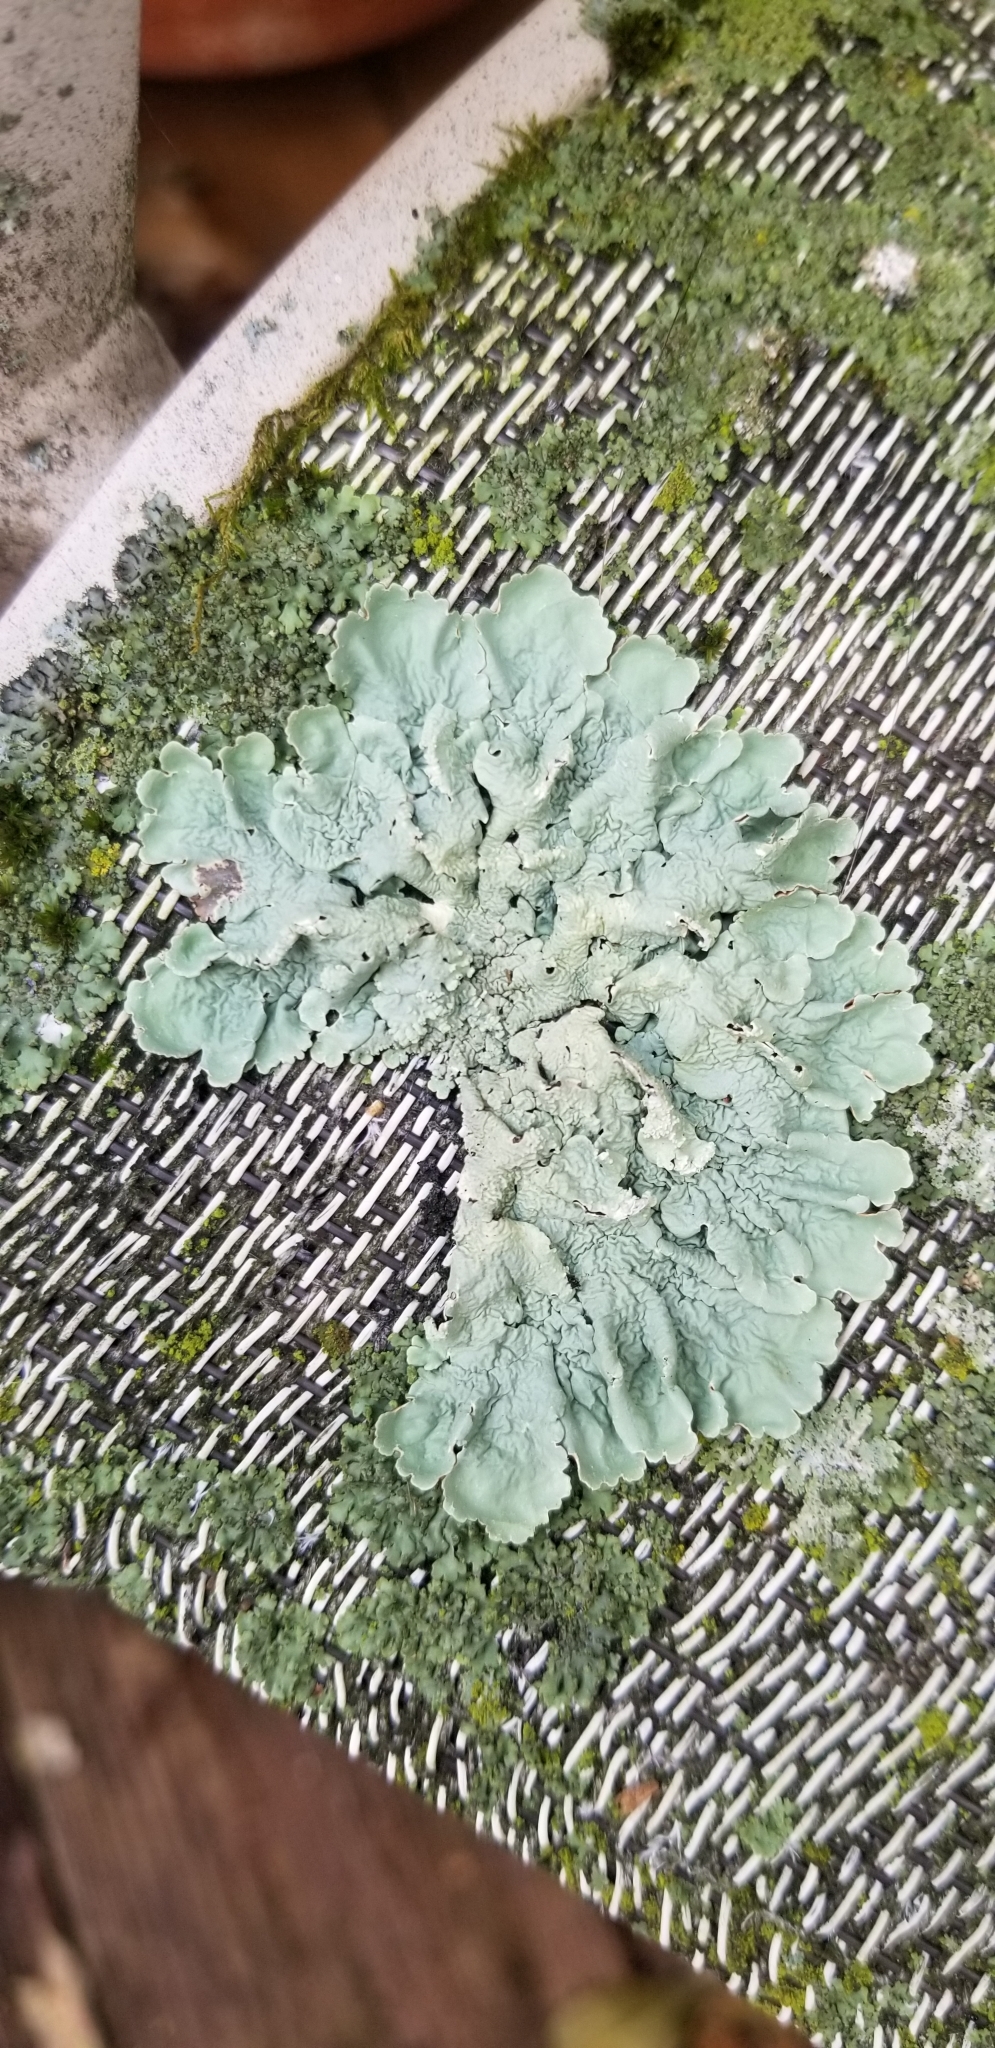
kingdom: Fungi
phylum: Ascomycota
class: Lecanoromycetes
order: Lecanorales
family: Parmeliaceae
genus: Flavoparmelia
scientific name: Flavoparmelia caperata
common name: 40-mile per hour lichen
